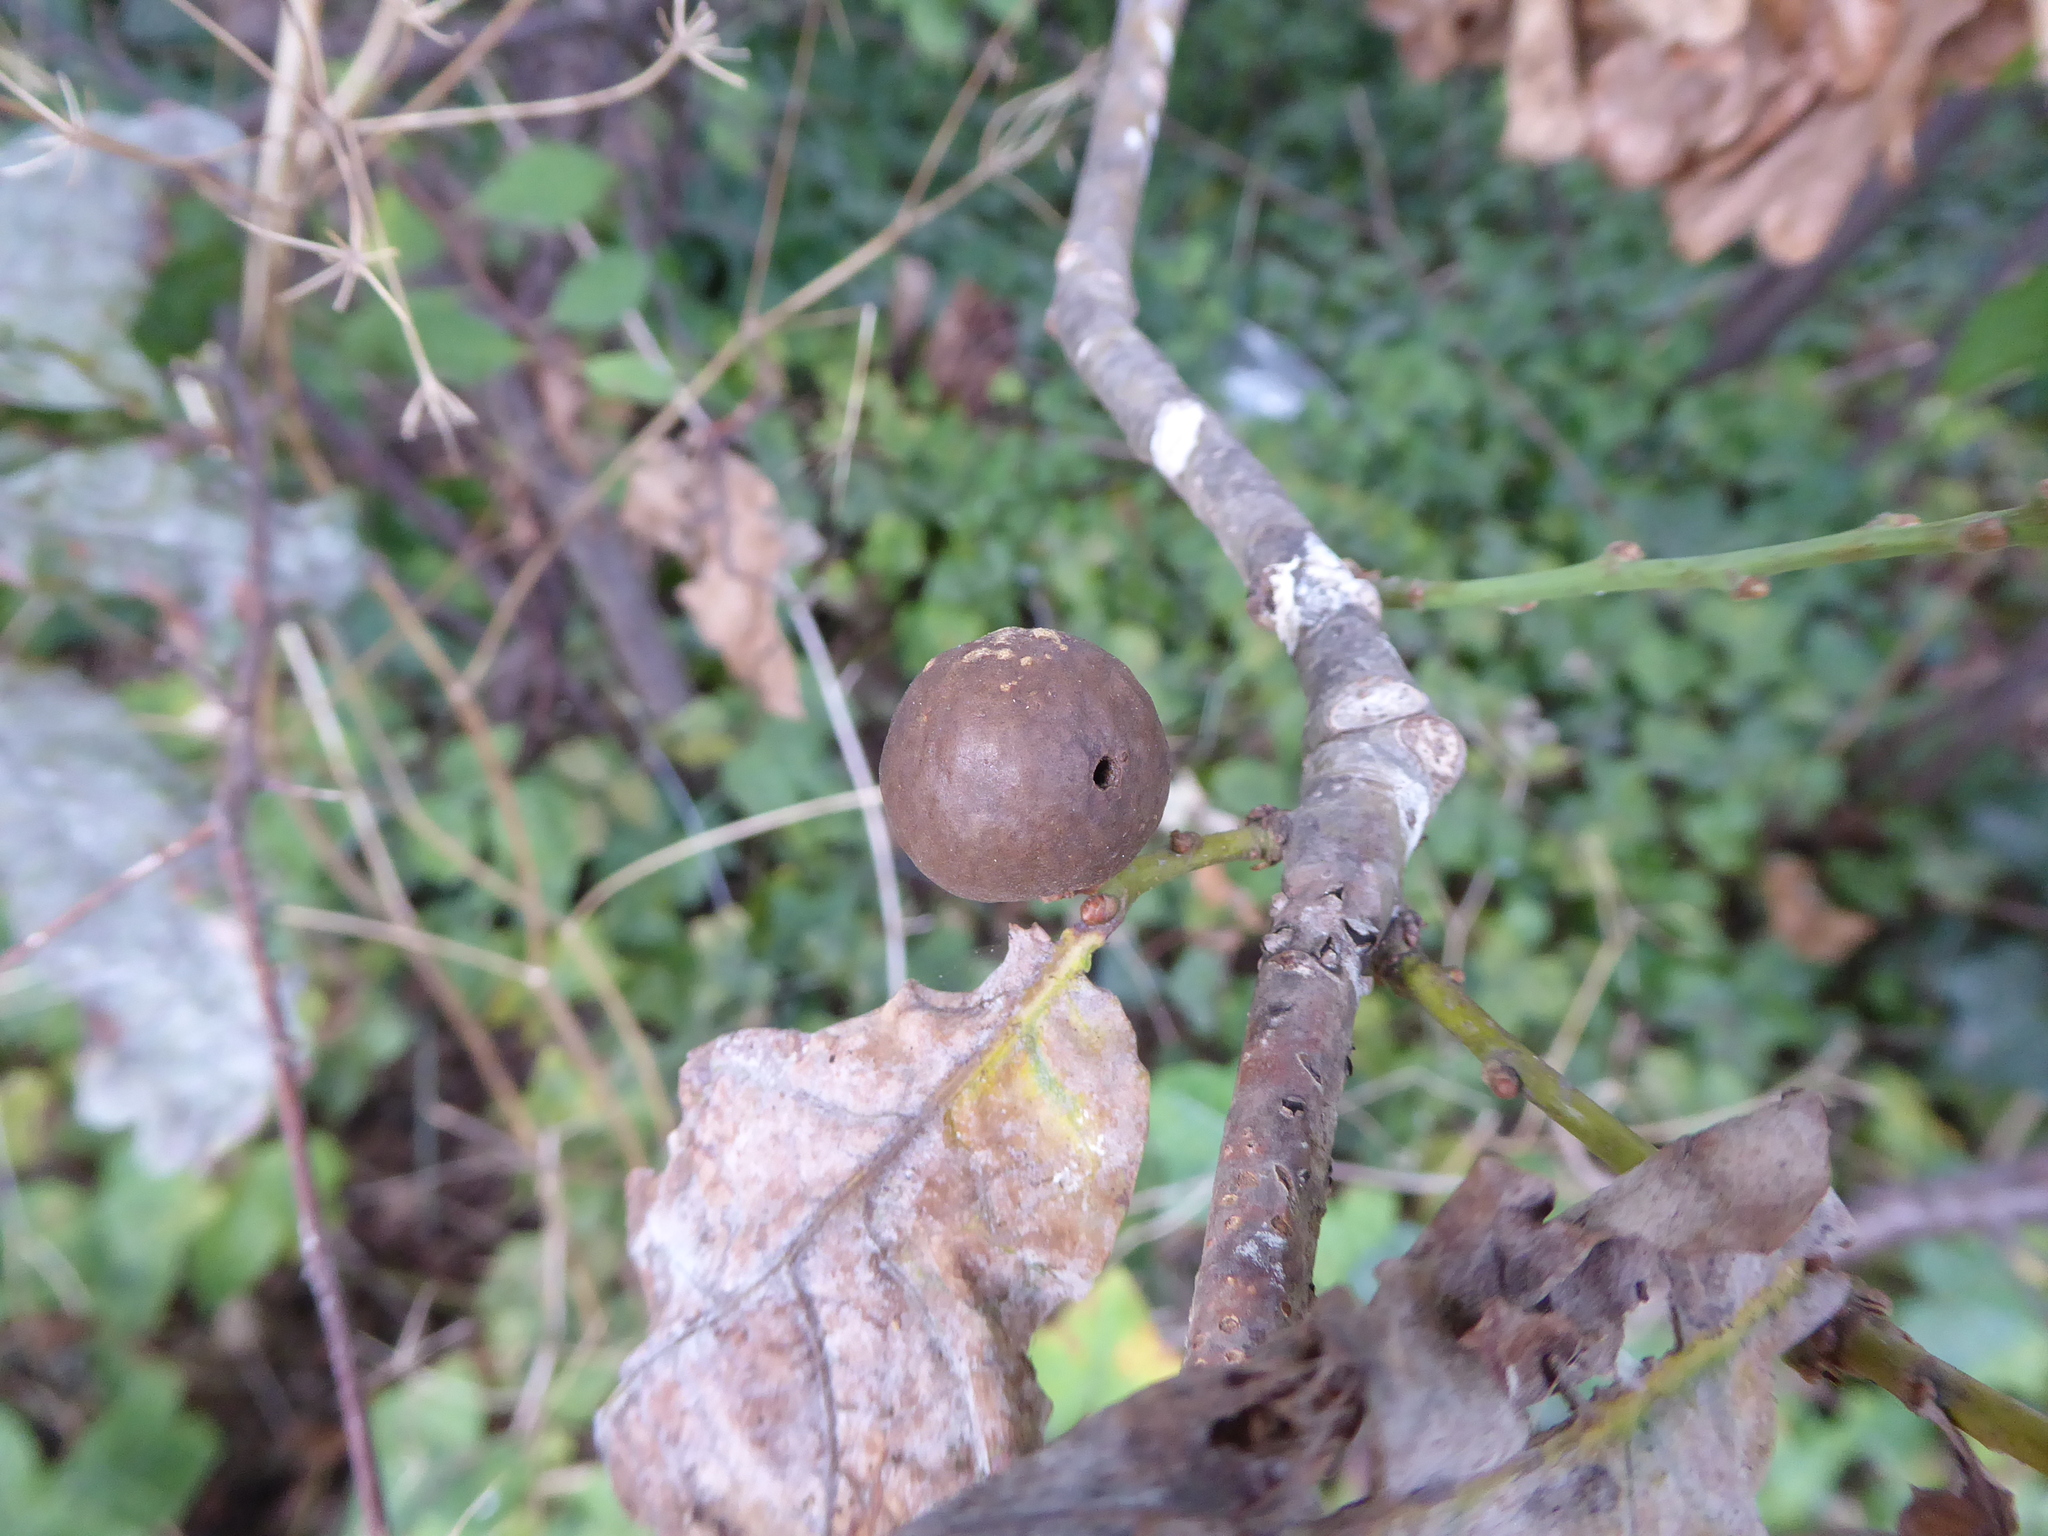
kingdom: Animalia
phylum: Arthropoda
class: Insecta
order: Hymenoptera
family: Cynipidae
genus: Andricus
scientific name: Andricus kollari
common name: Marble gall
